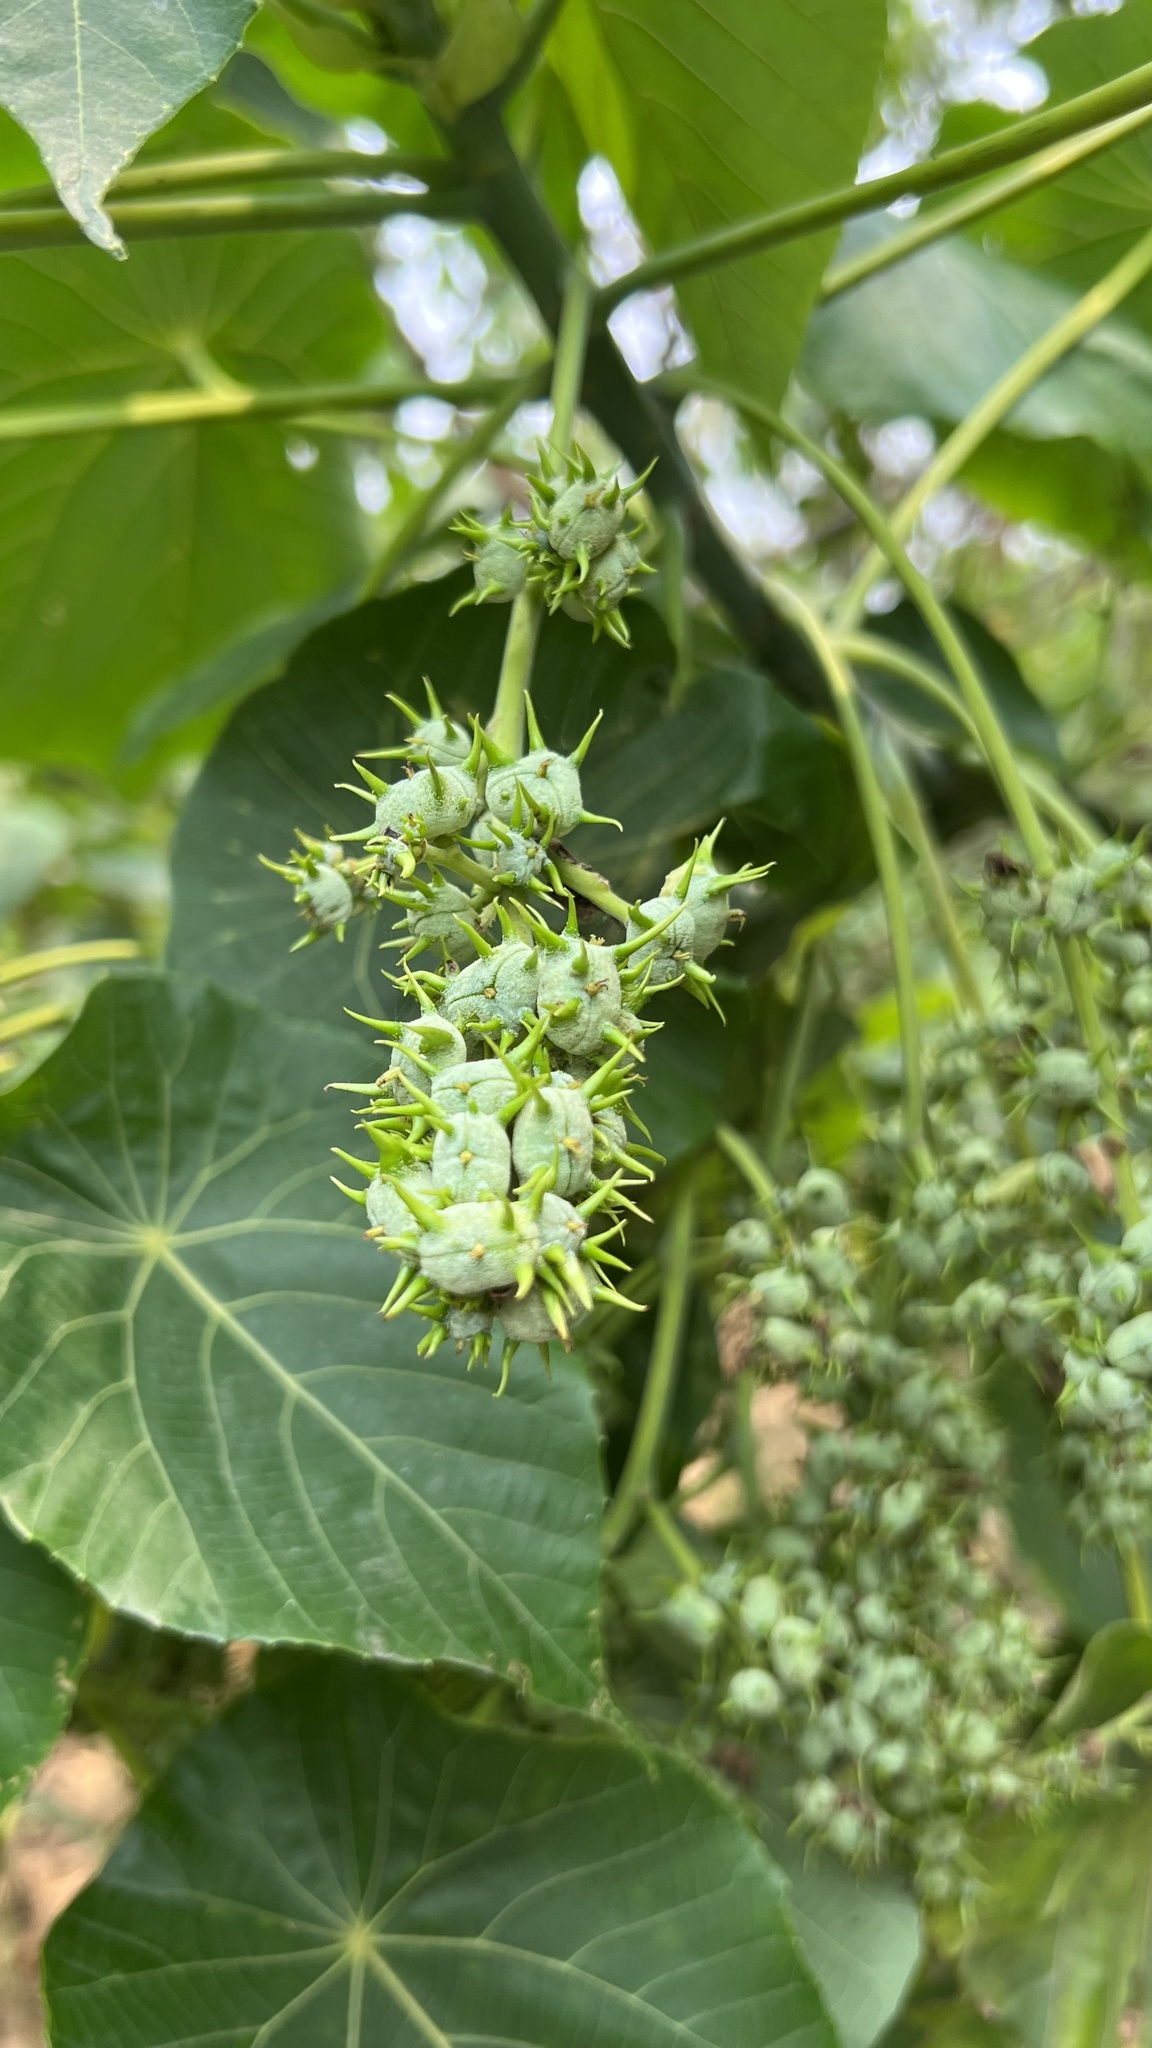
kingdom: Plantae
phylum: Tracheophyta
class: Magnoliopsida
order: Malpighiales
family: Euphorbiaceae
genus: Macaranga
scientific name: Macaranga tanarius
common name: Parasol leaf tree
